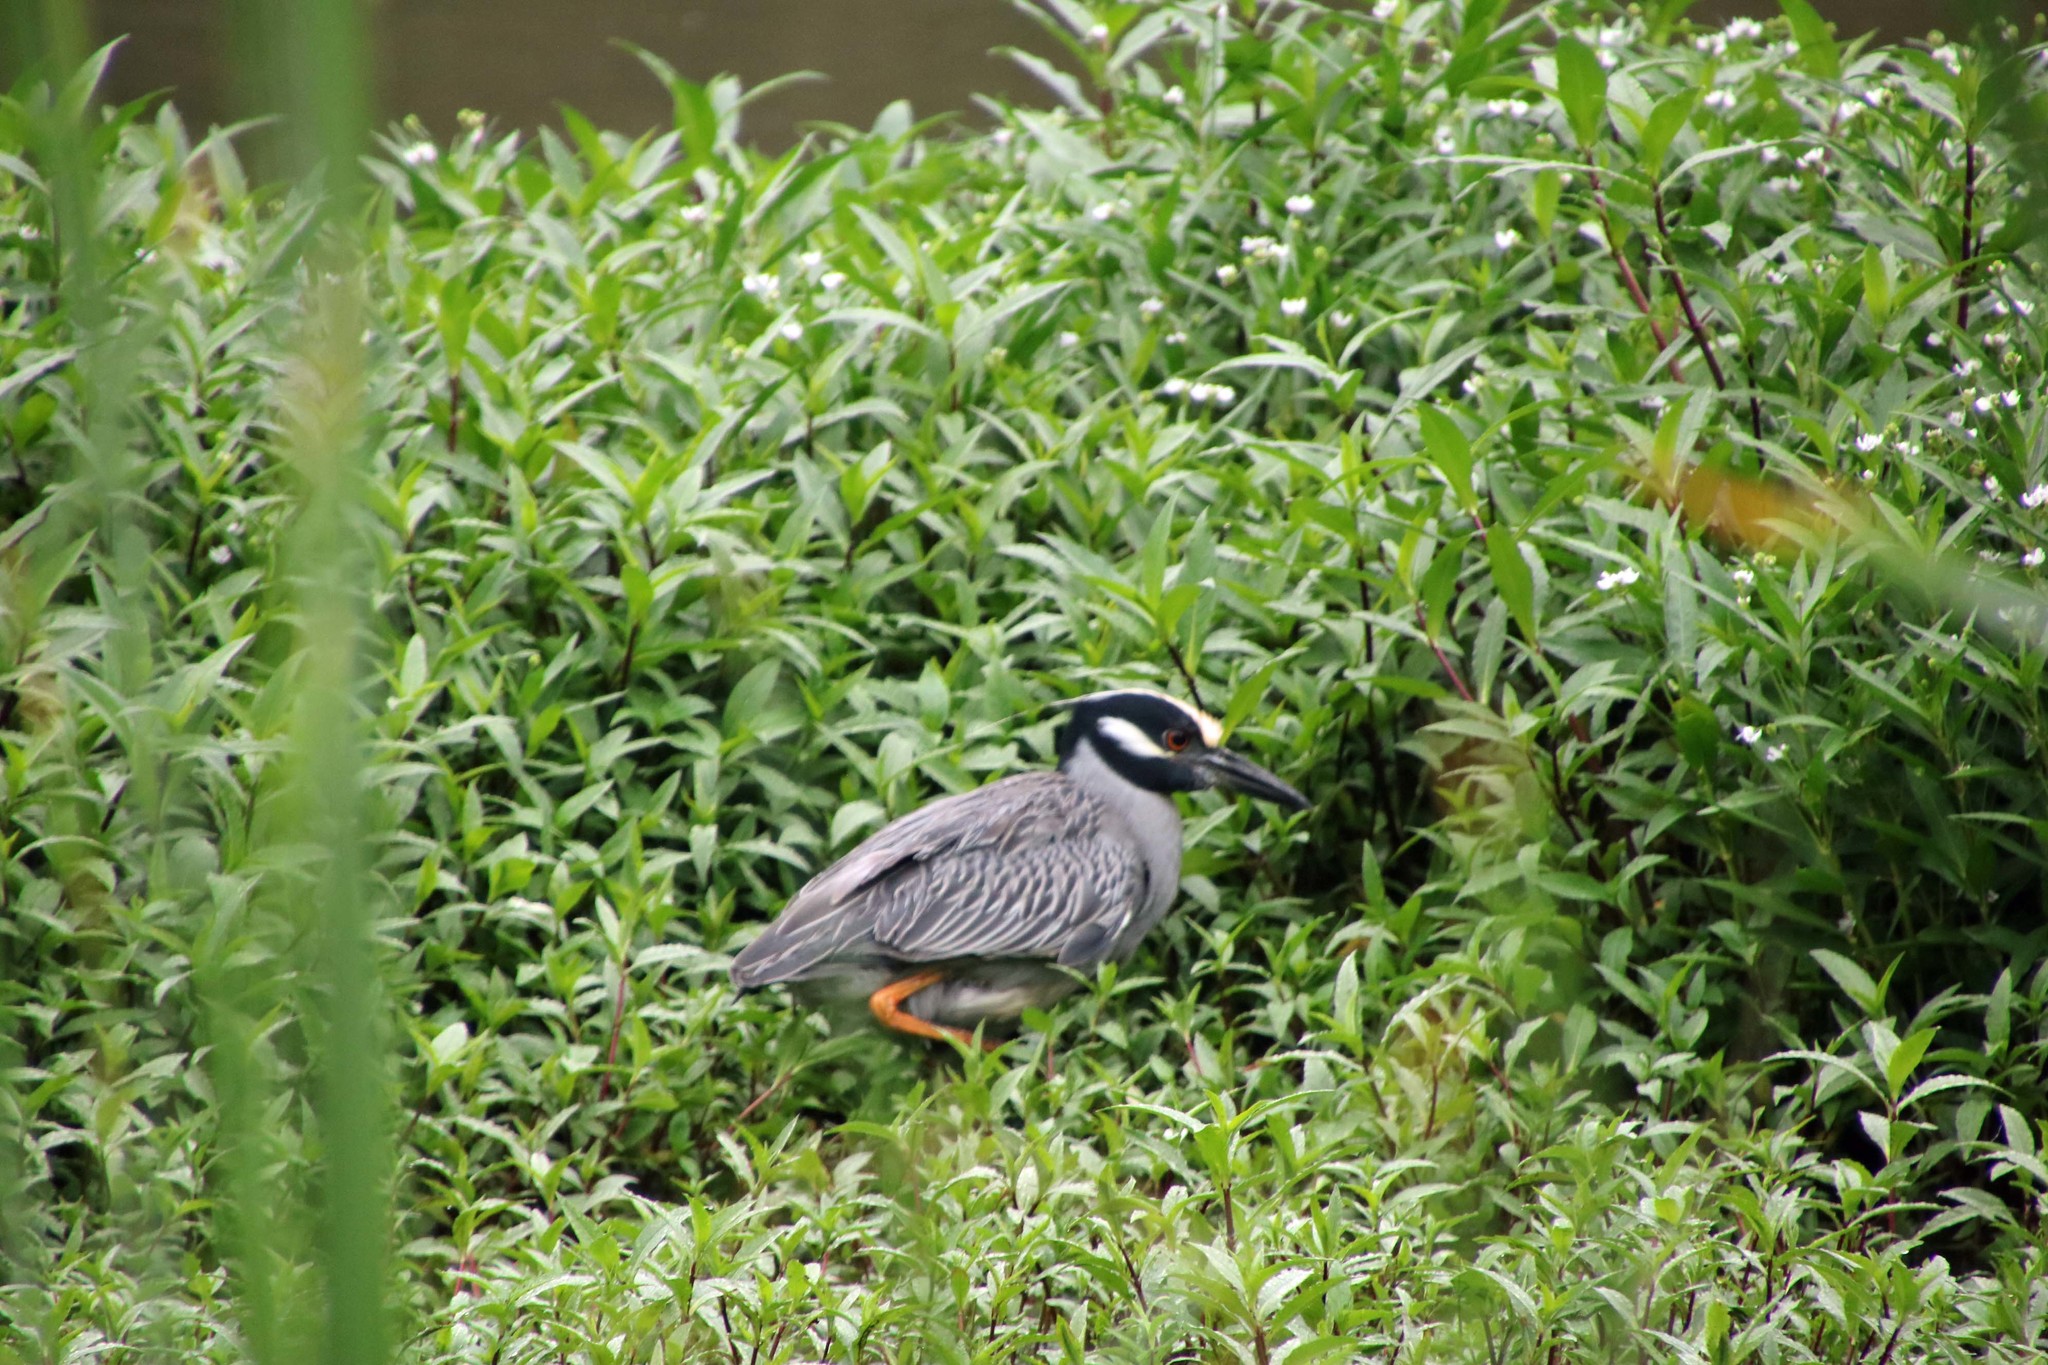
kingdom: Animalia
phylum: Chordata
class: Aves
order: Pelecaniformes
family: Ardeidae
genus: Nyctanassa
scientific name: Nyctanassa violacea
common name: Yellow-crowned night heron
